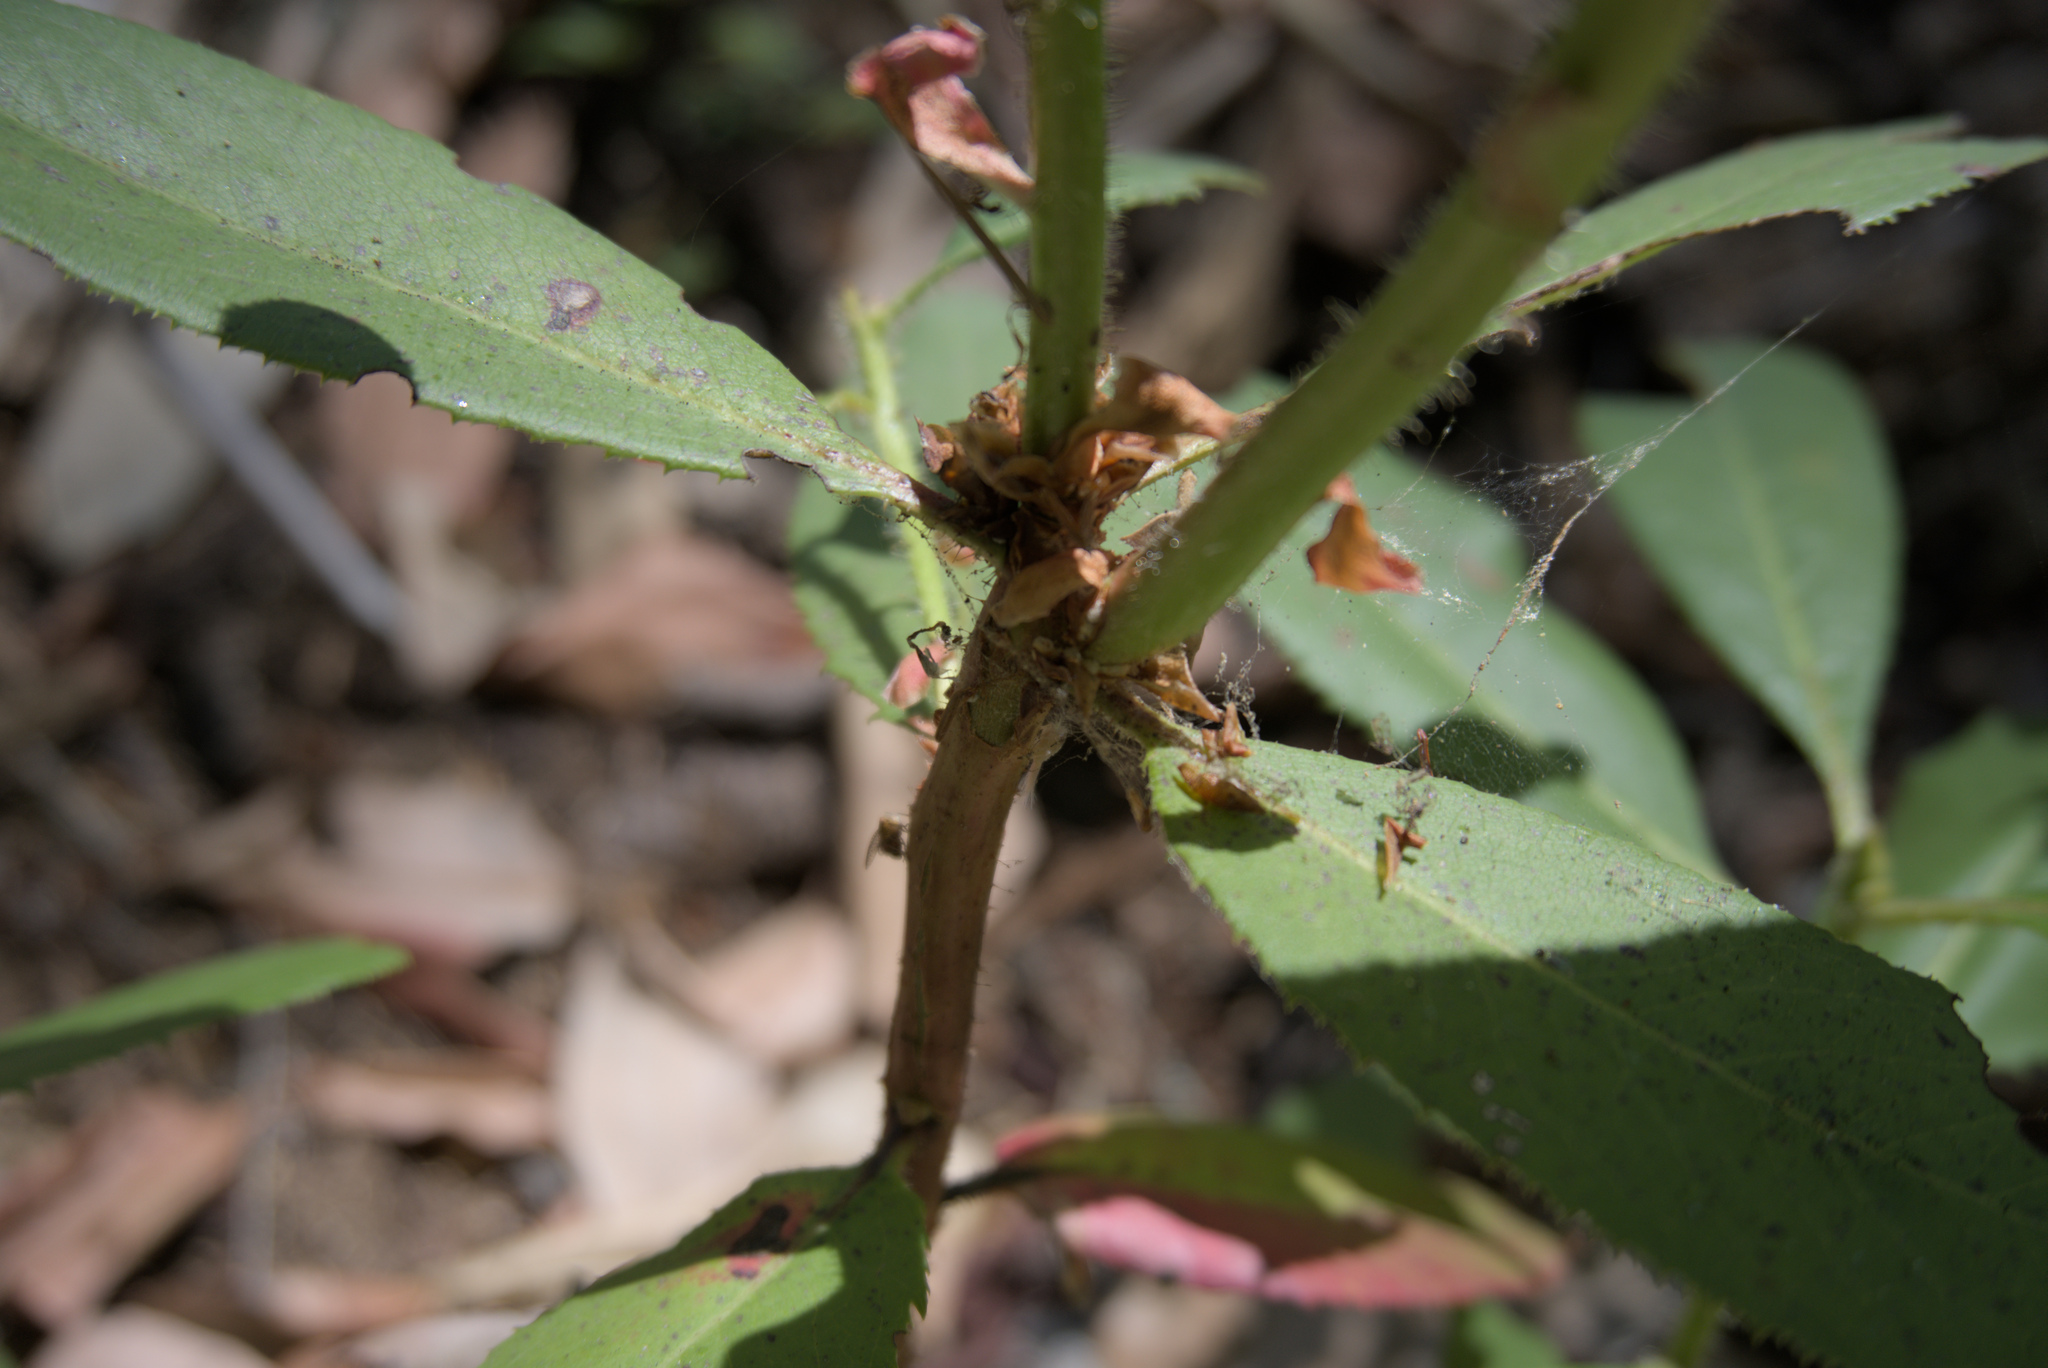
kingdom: Plantae
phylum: Tracheophyta
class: Magnoliopsida
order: Ericales
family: Ericaceae
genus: Arbutus
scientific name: Arbutus menziesii
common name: Pacific madrone
